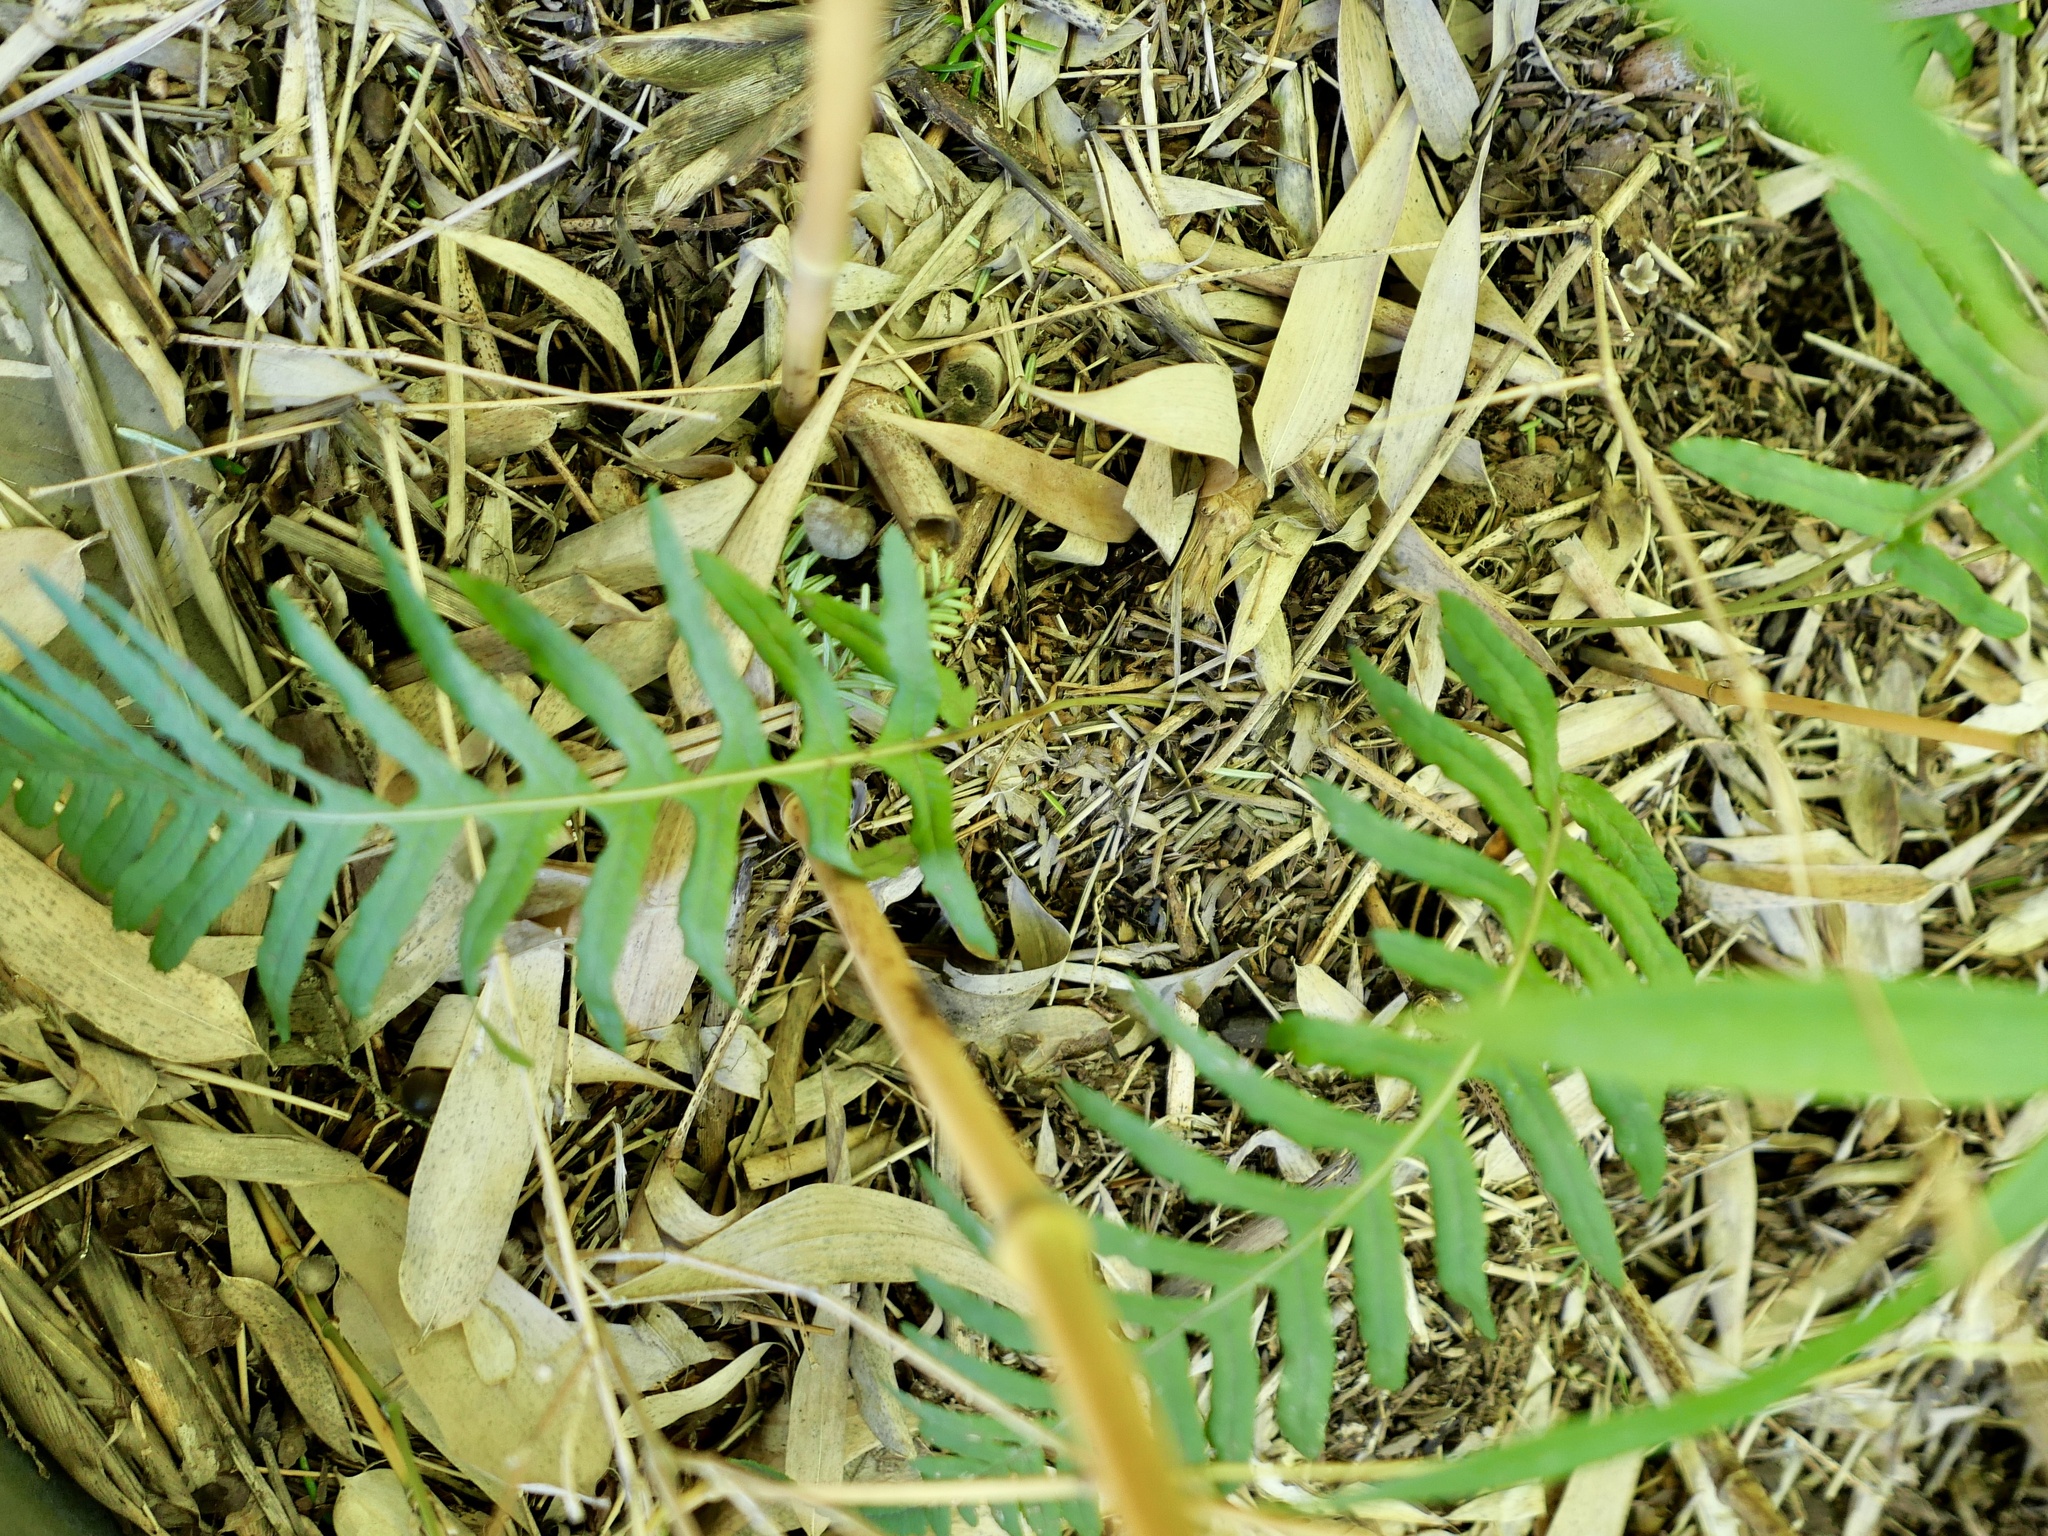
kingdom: Plantae
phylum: Tracheophyta
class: Polypodiopsida
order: Polypodiales
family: Polypodiaceae
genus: Polypodium
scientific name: Polypodium glycyrrhiza
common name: Licorice fern
